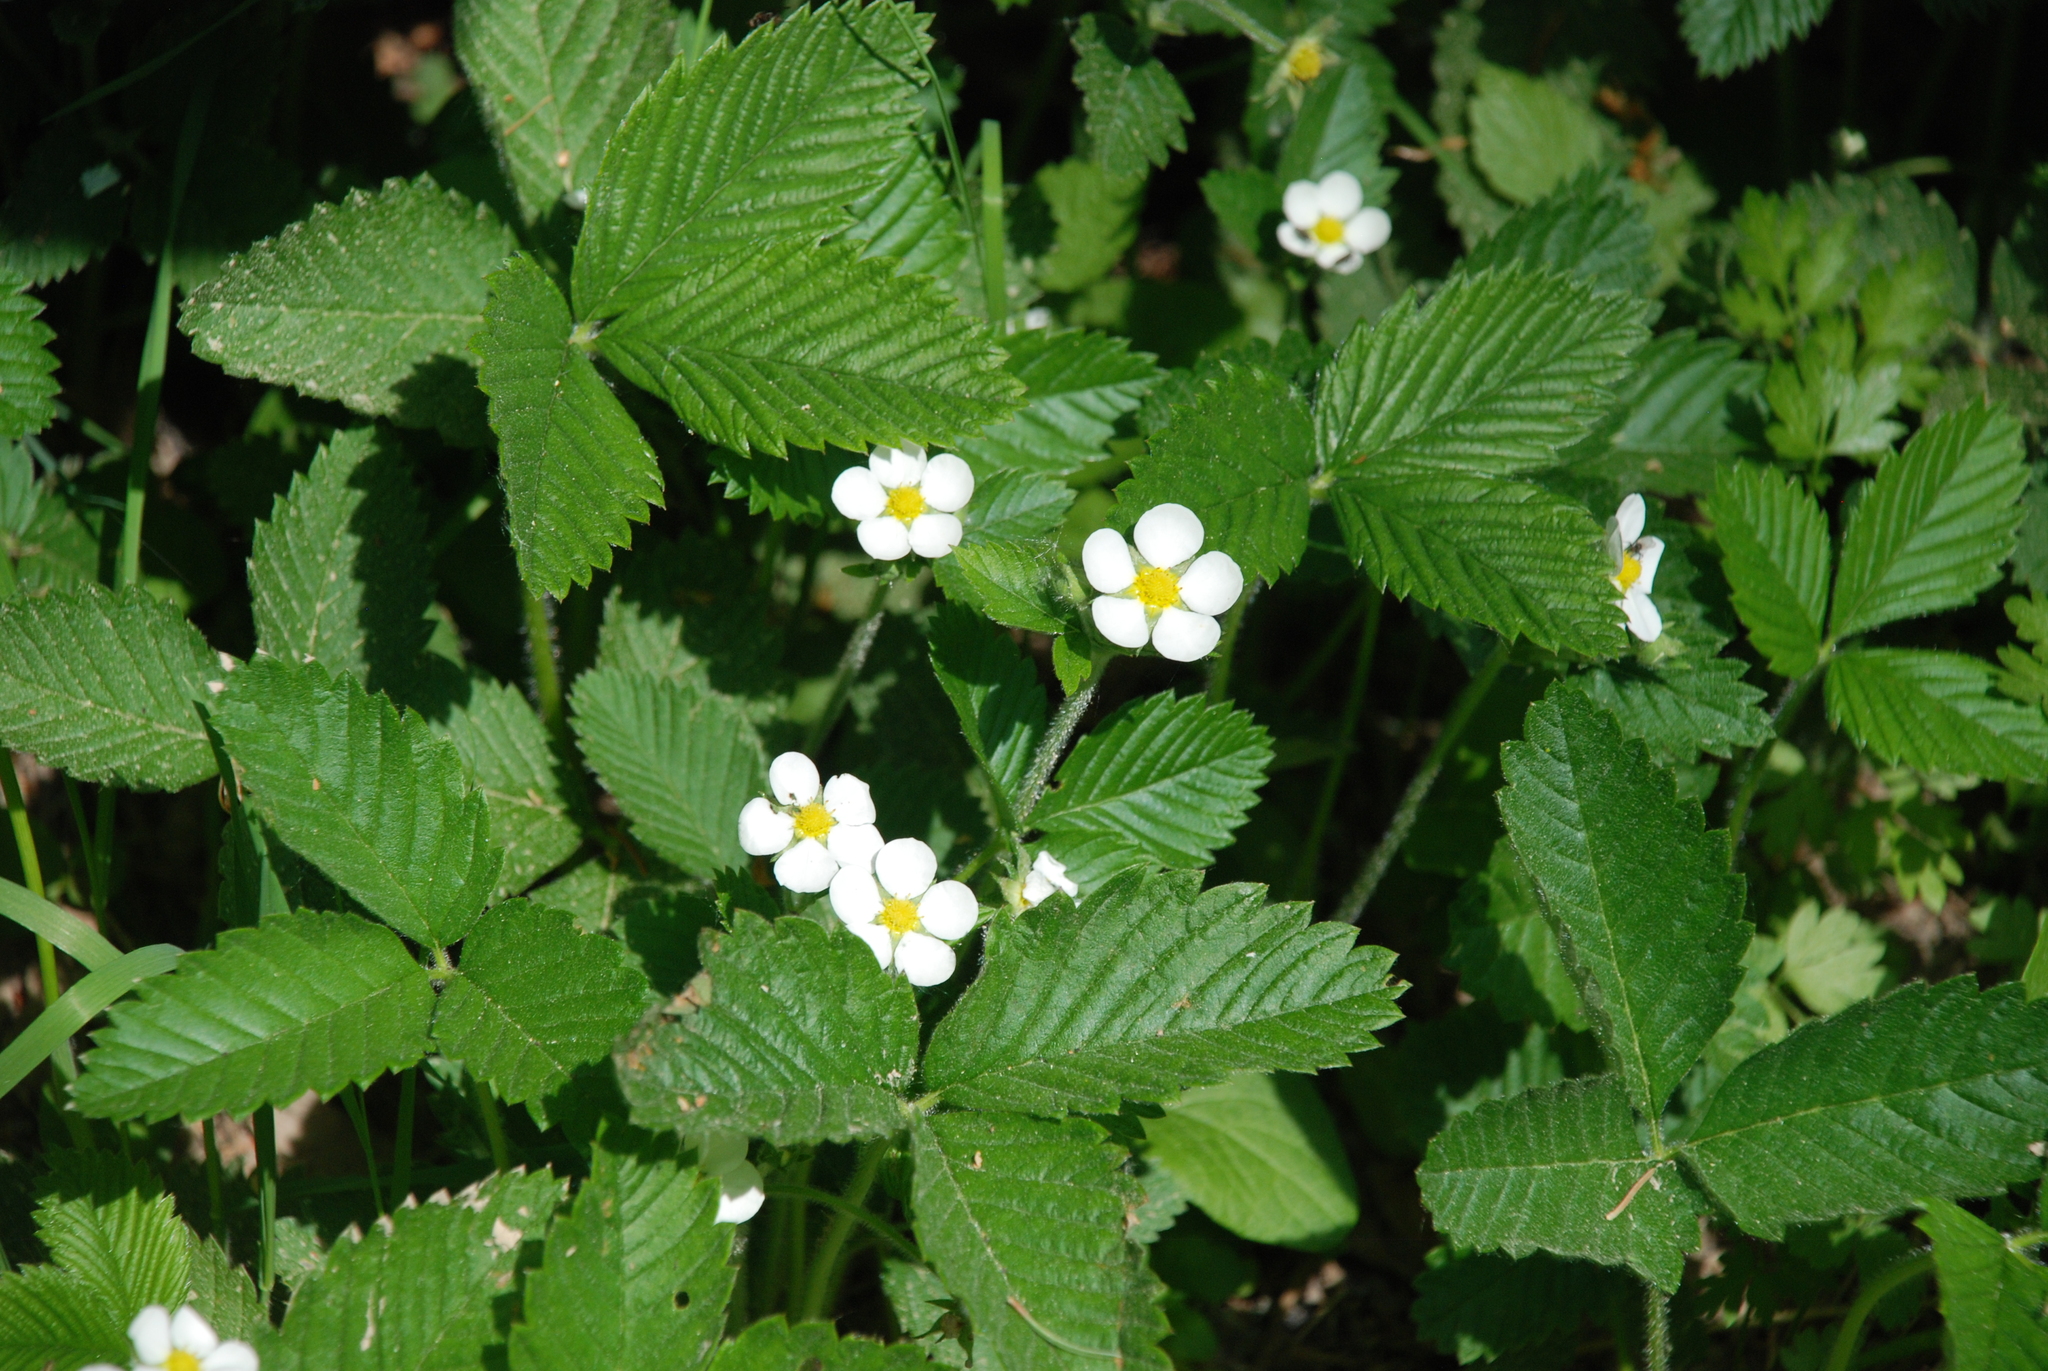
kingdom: Plantae
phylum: Tracheophyta
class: Magnoliopsida
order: Rosales
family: Rosaceae
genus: Fragaria
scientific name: Fragaria moschata
